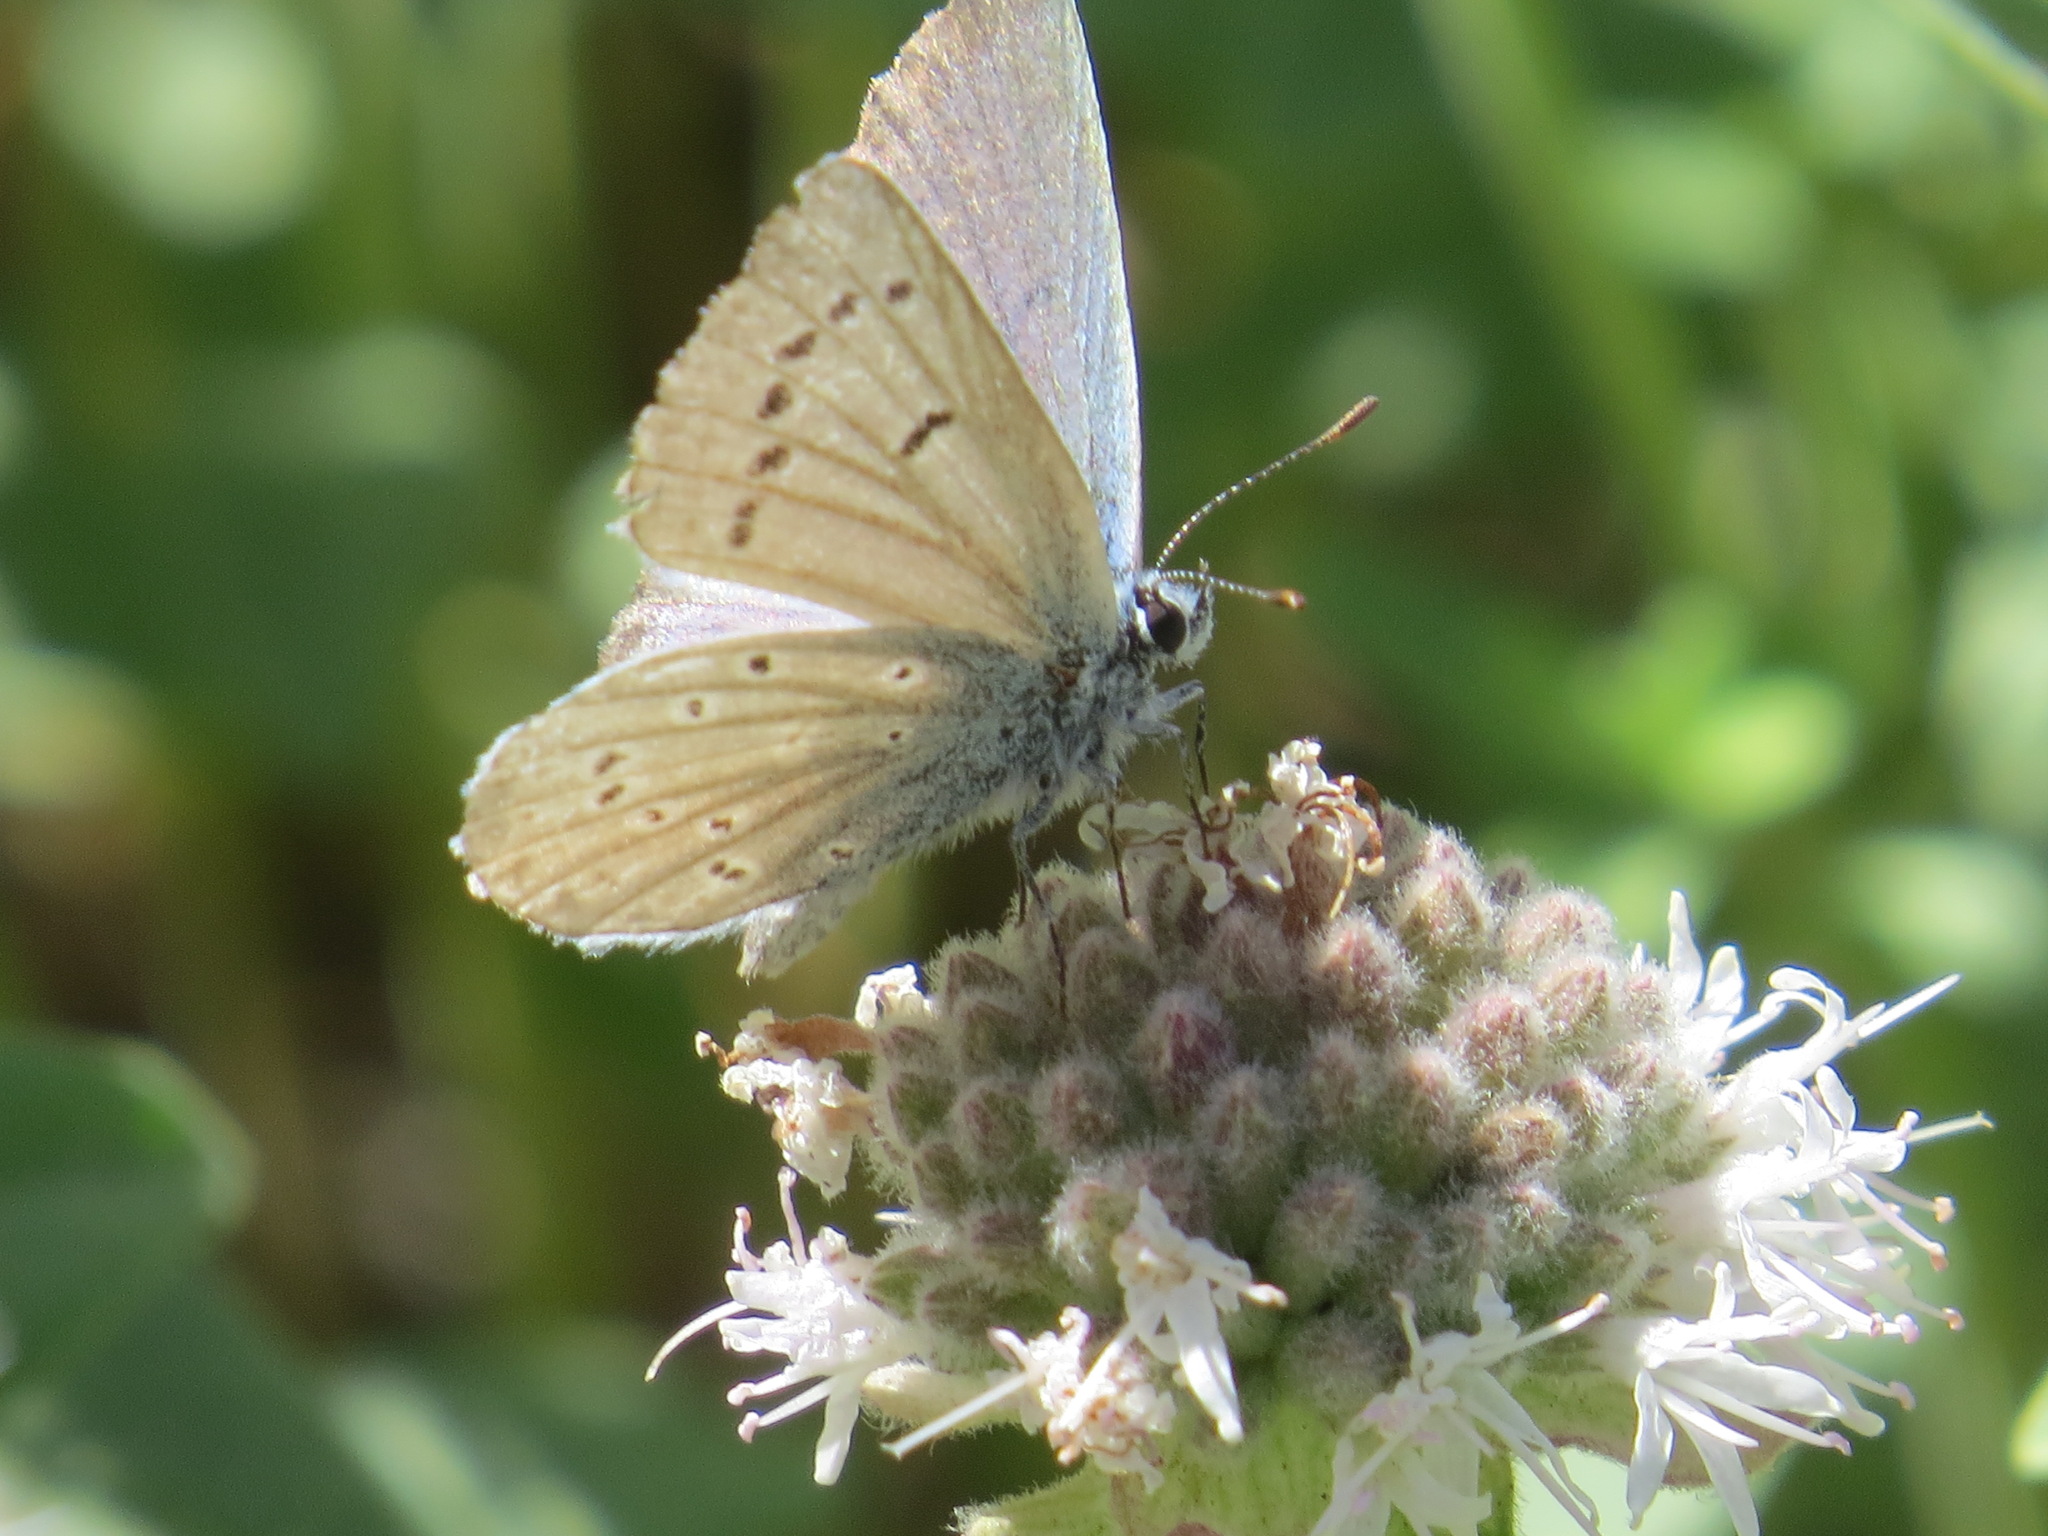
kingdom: Animalia
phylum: Arthropoda
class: Insecta
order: Lepidoptera
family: Lycaenidae
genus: Icaricia
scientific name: Icaricia icarioides
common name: Boisduval's blue
